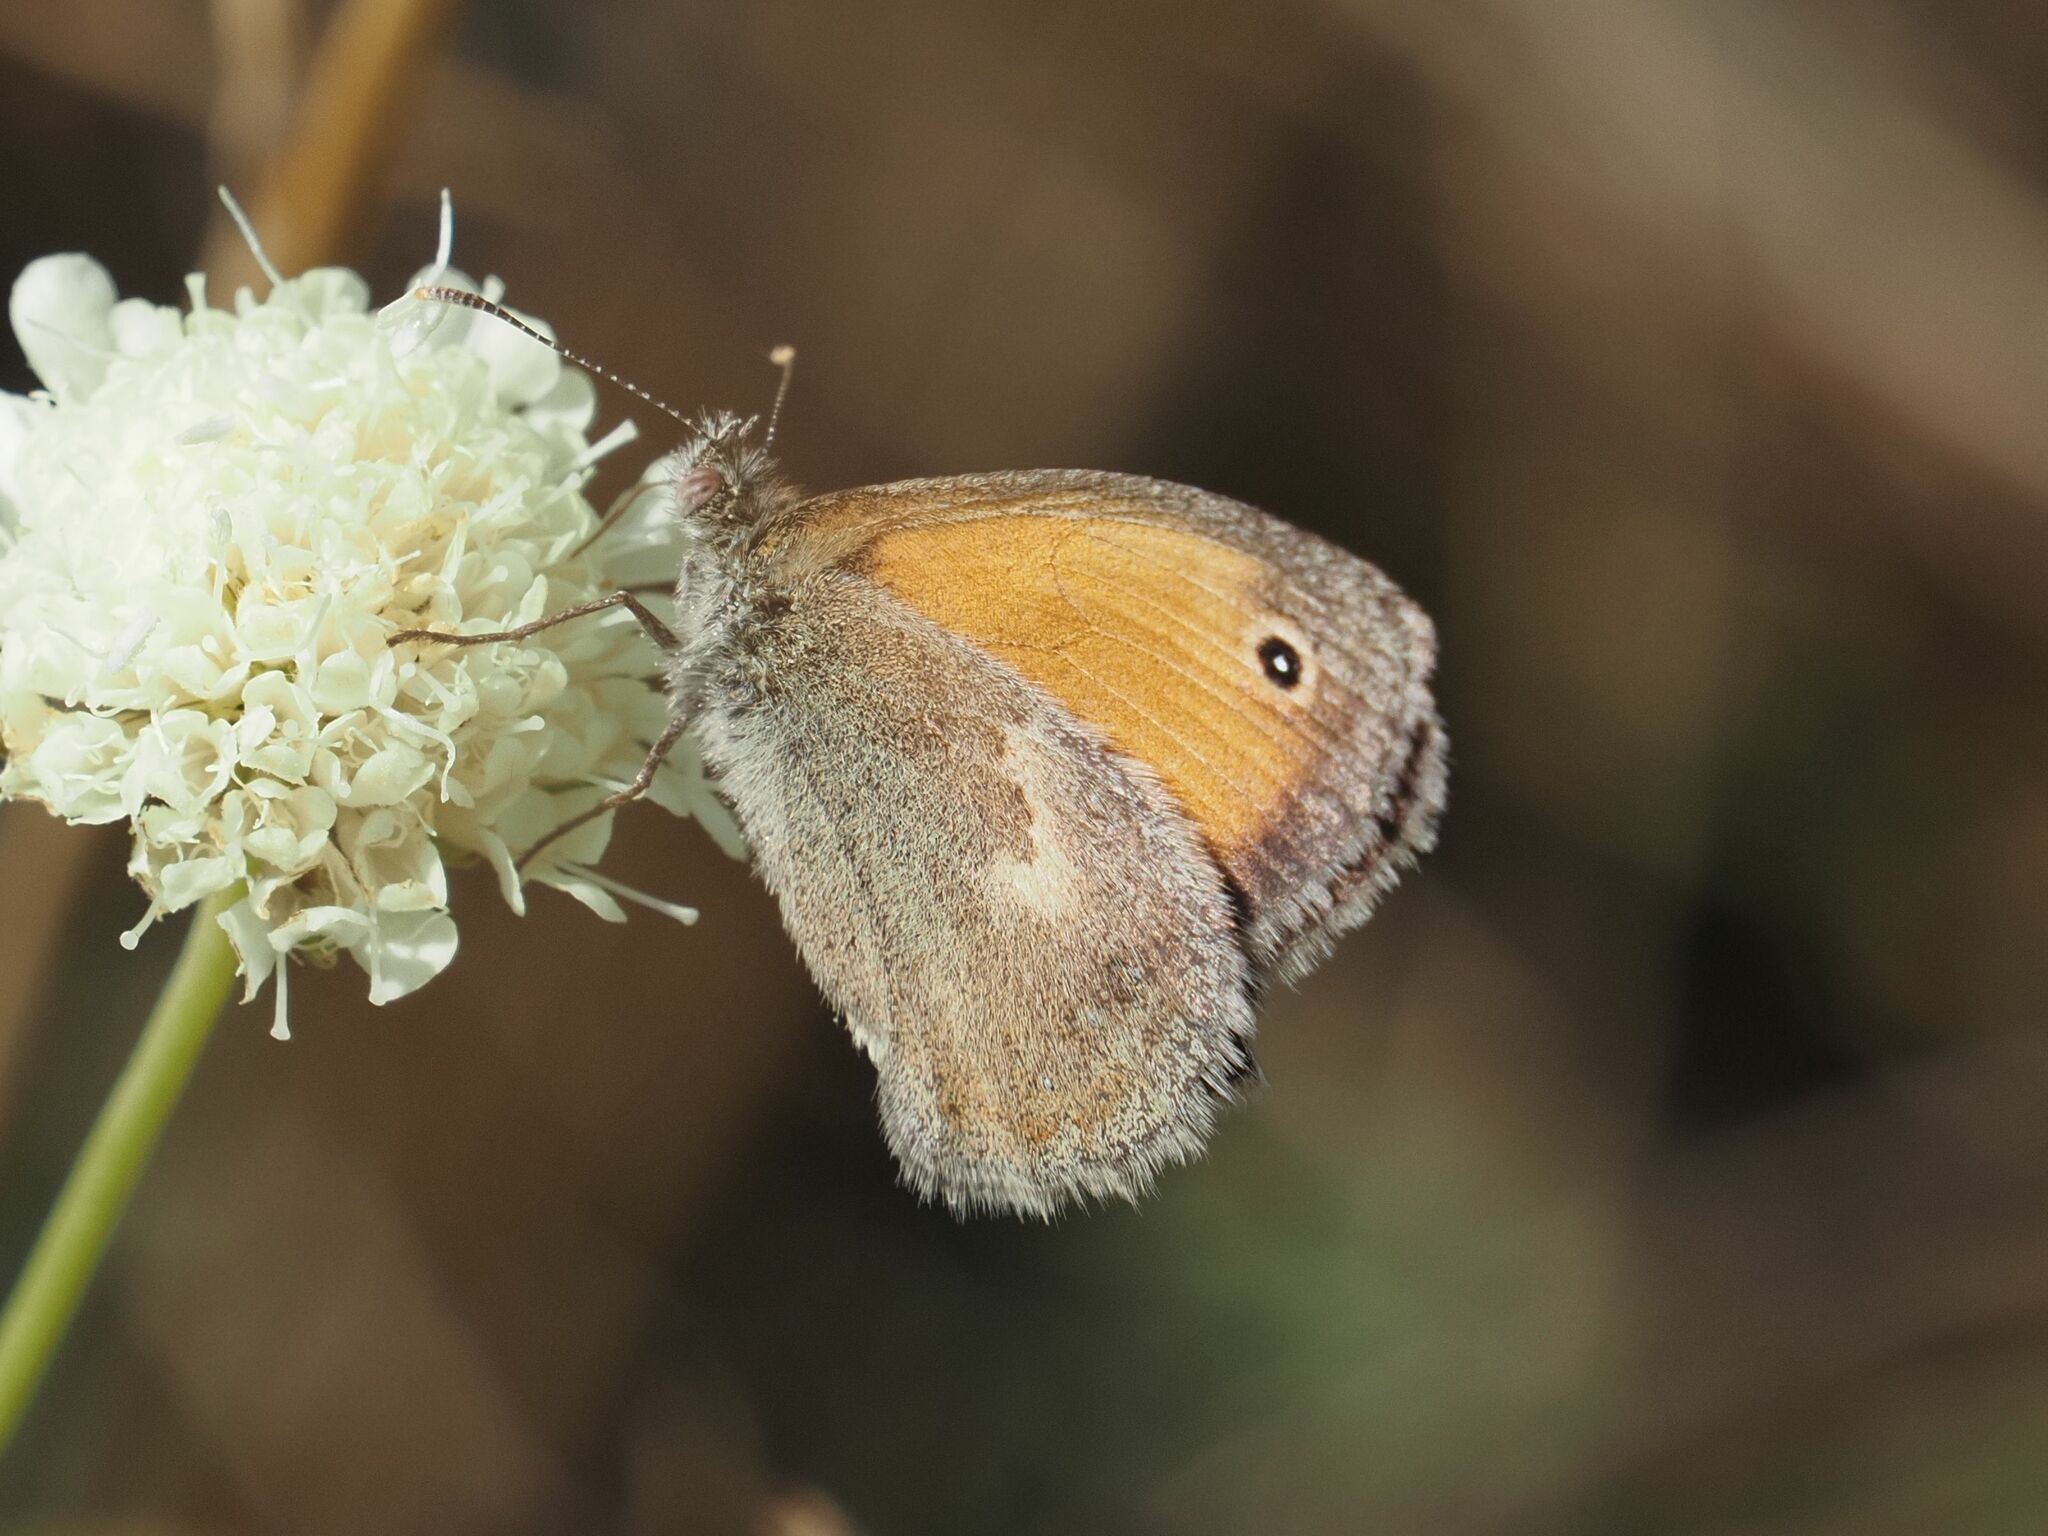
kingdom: Animalia
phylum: Arthropoda
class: Insecta
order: Lepidoptera
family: Nymphalidae
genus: Coenonympha
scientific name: Coenonympha pamphilus
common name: Small heath
